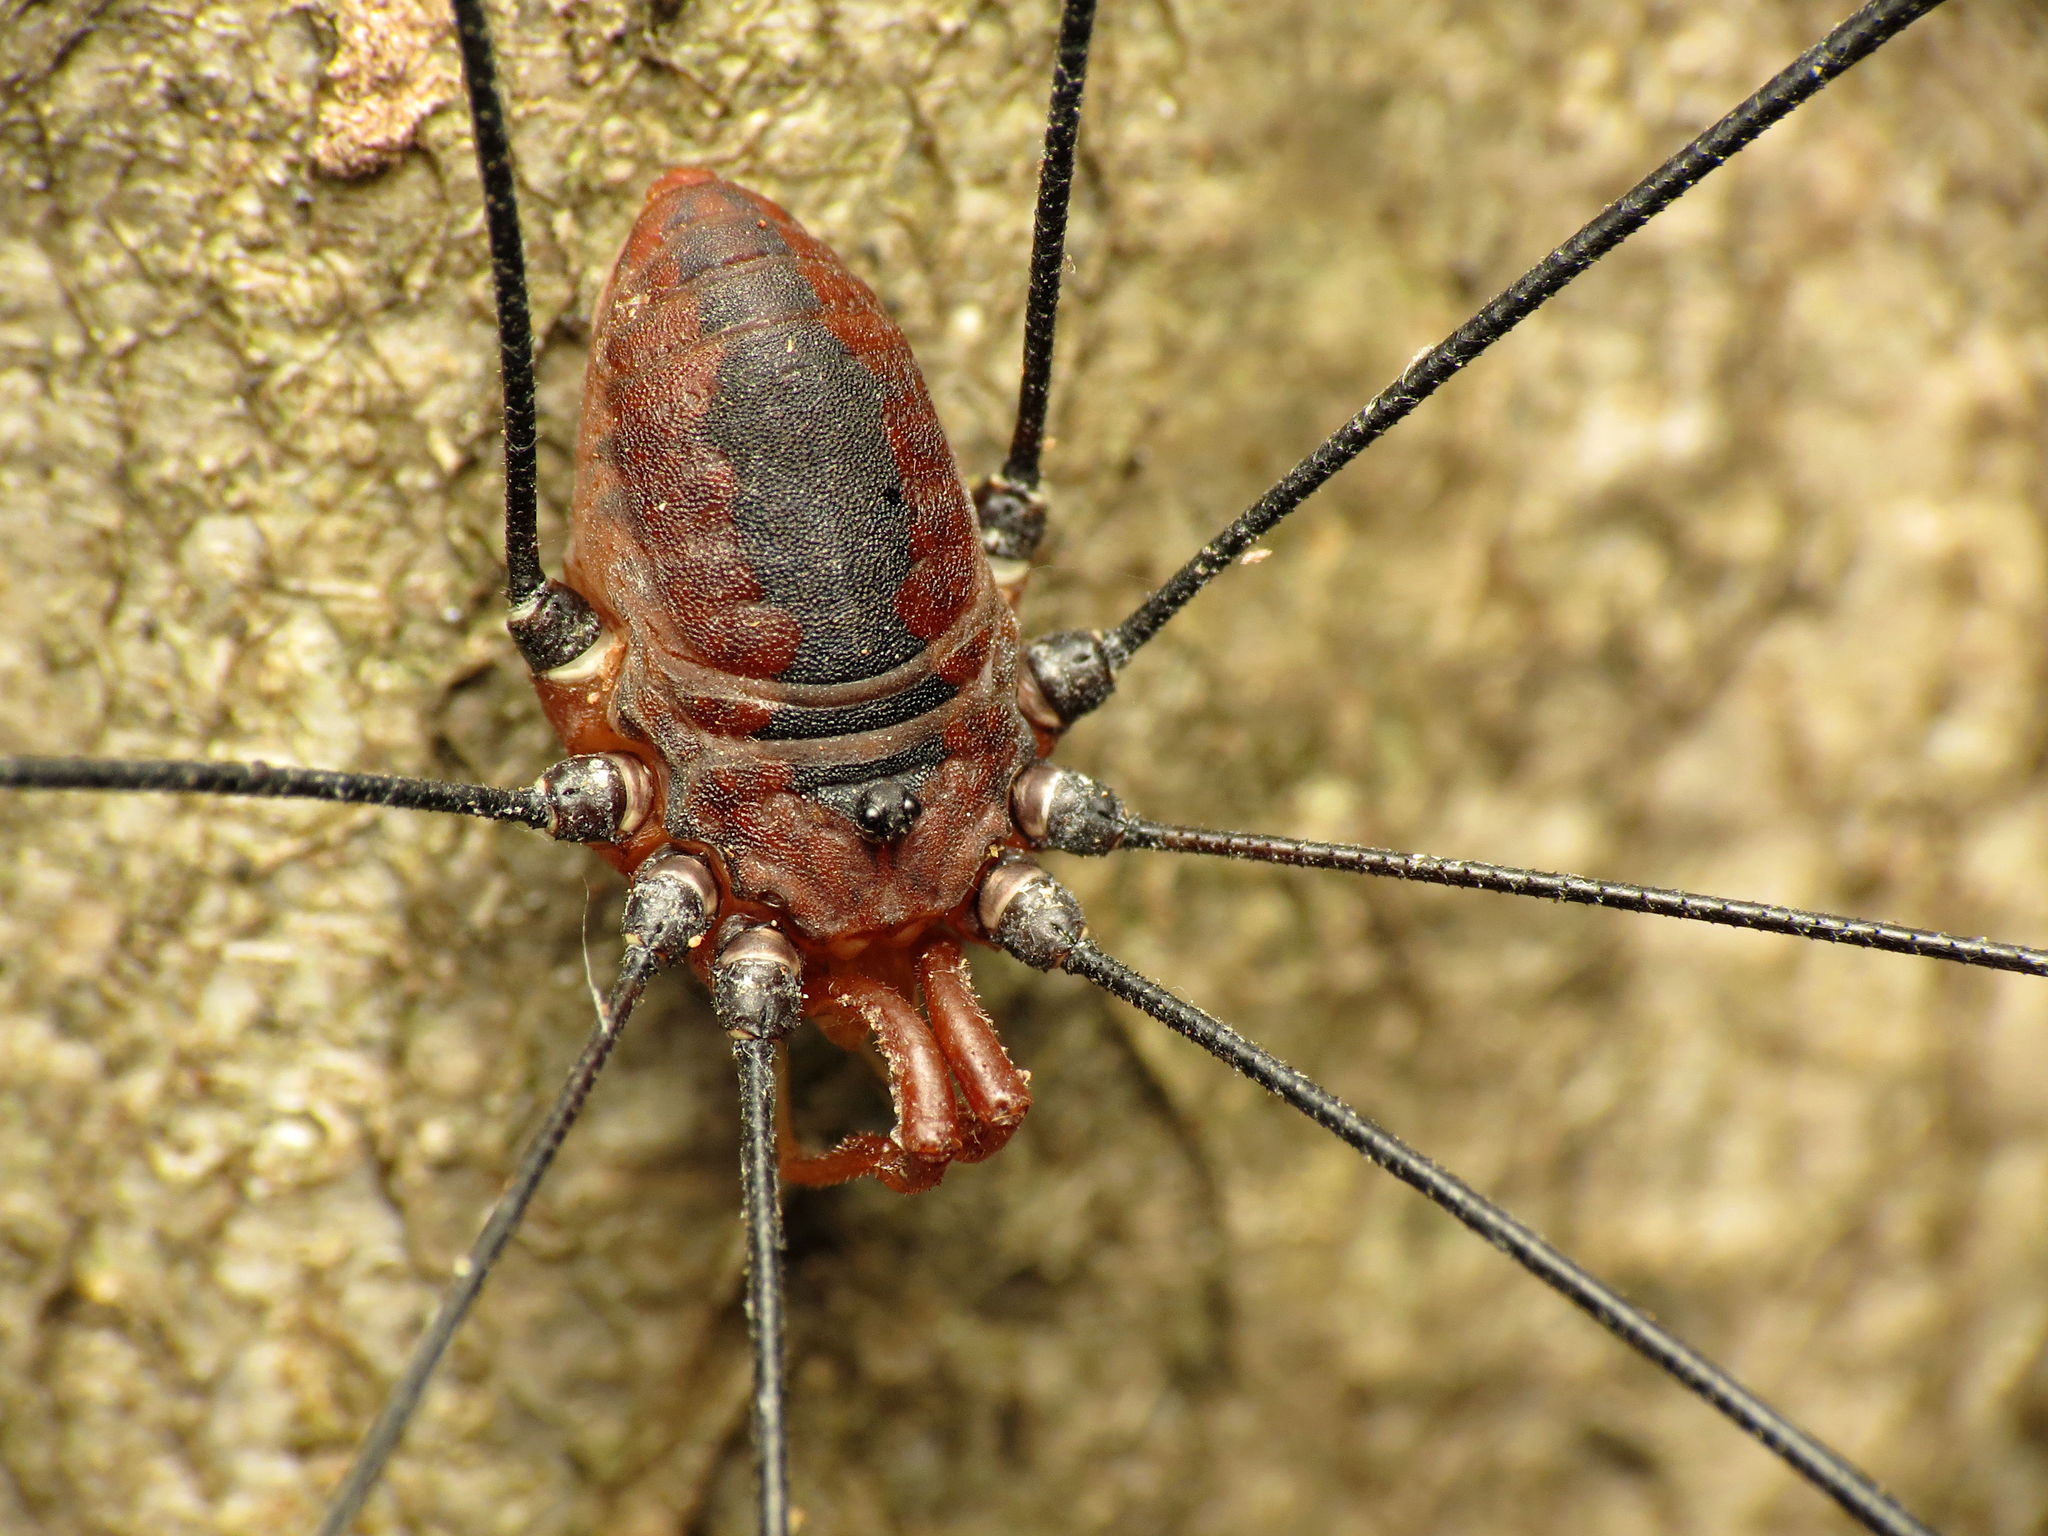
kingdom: Animalia
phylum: Arthropoda
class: Arachnida
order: Opiliones
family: Sclerosomatidae
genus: Leiobunum
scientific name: Leiobunum vittatum
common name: Eastern harvestman
